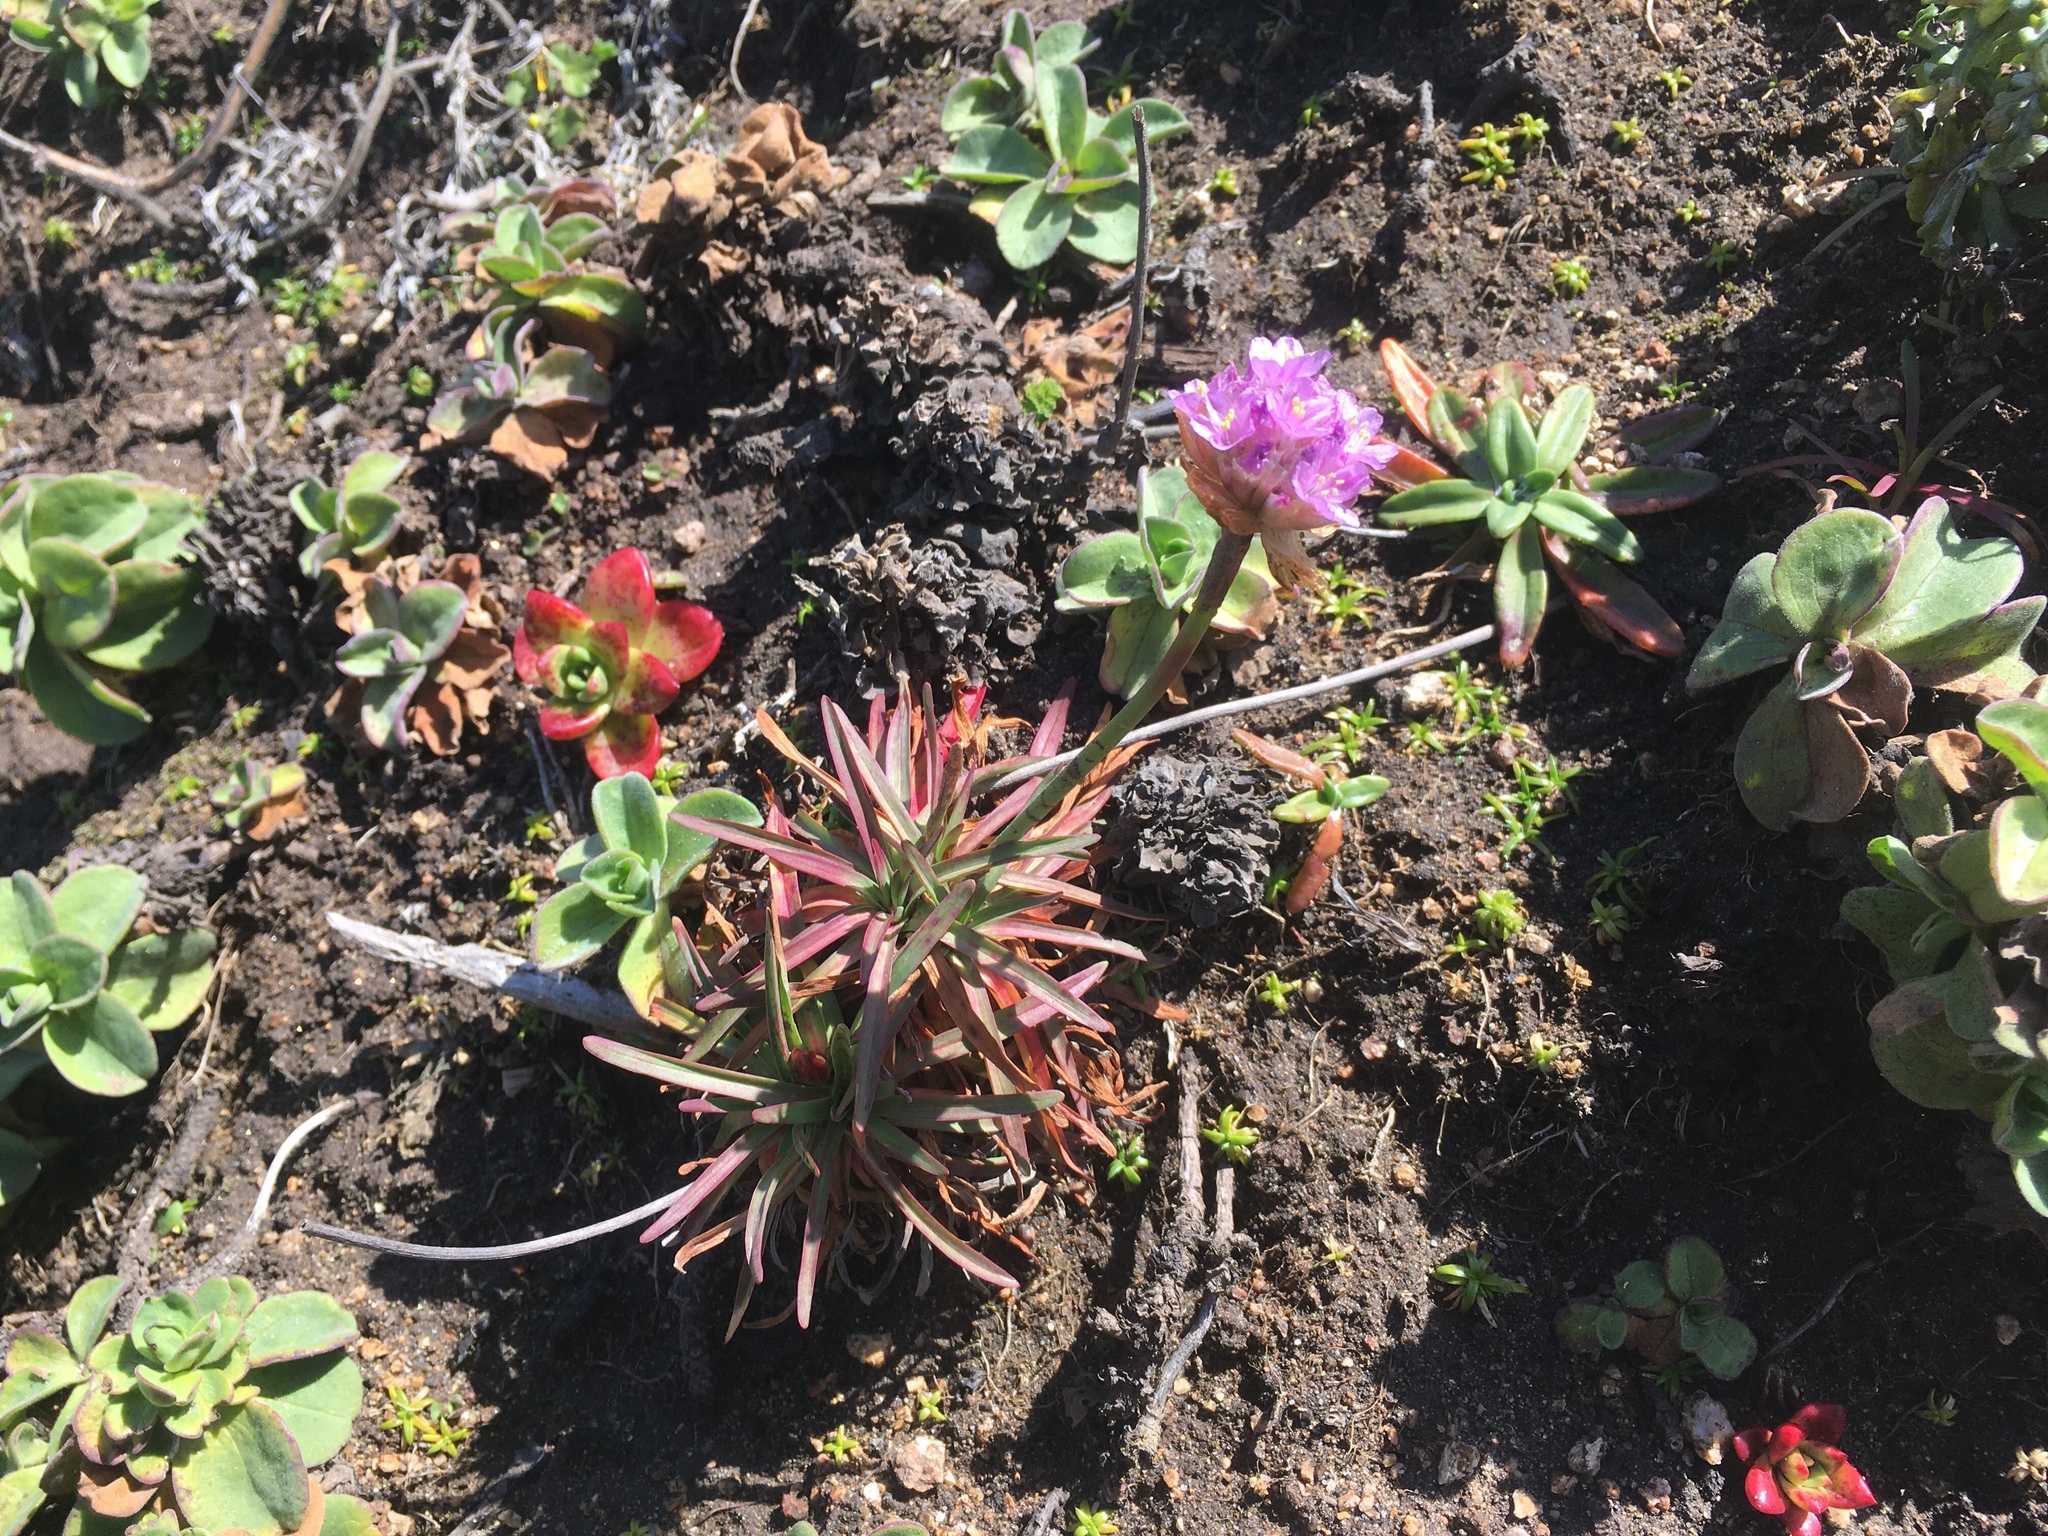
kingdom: Plantae
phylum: Tracheophyta
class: Magnoliopsida
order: Caryophyllales
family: Plumbaginaceae
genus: Armeria
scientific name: Armeria maritima
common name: Thrift
